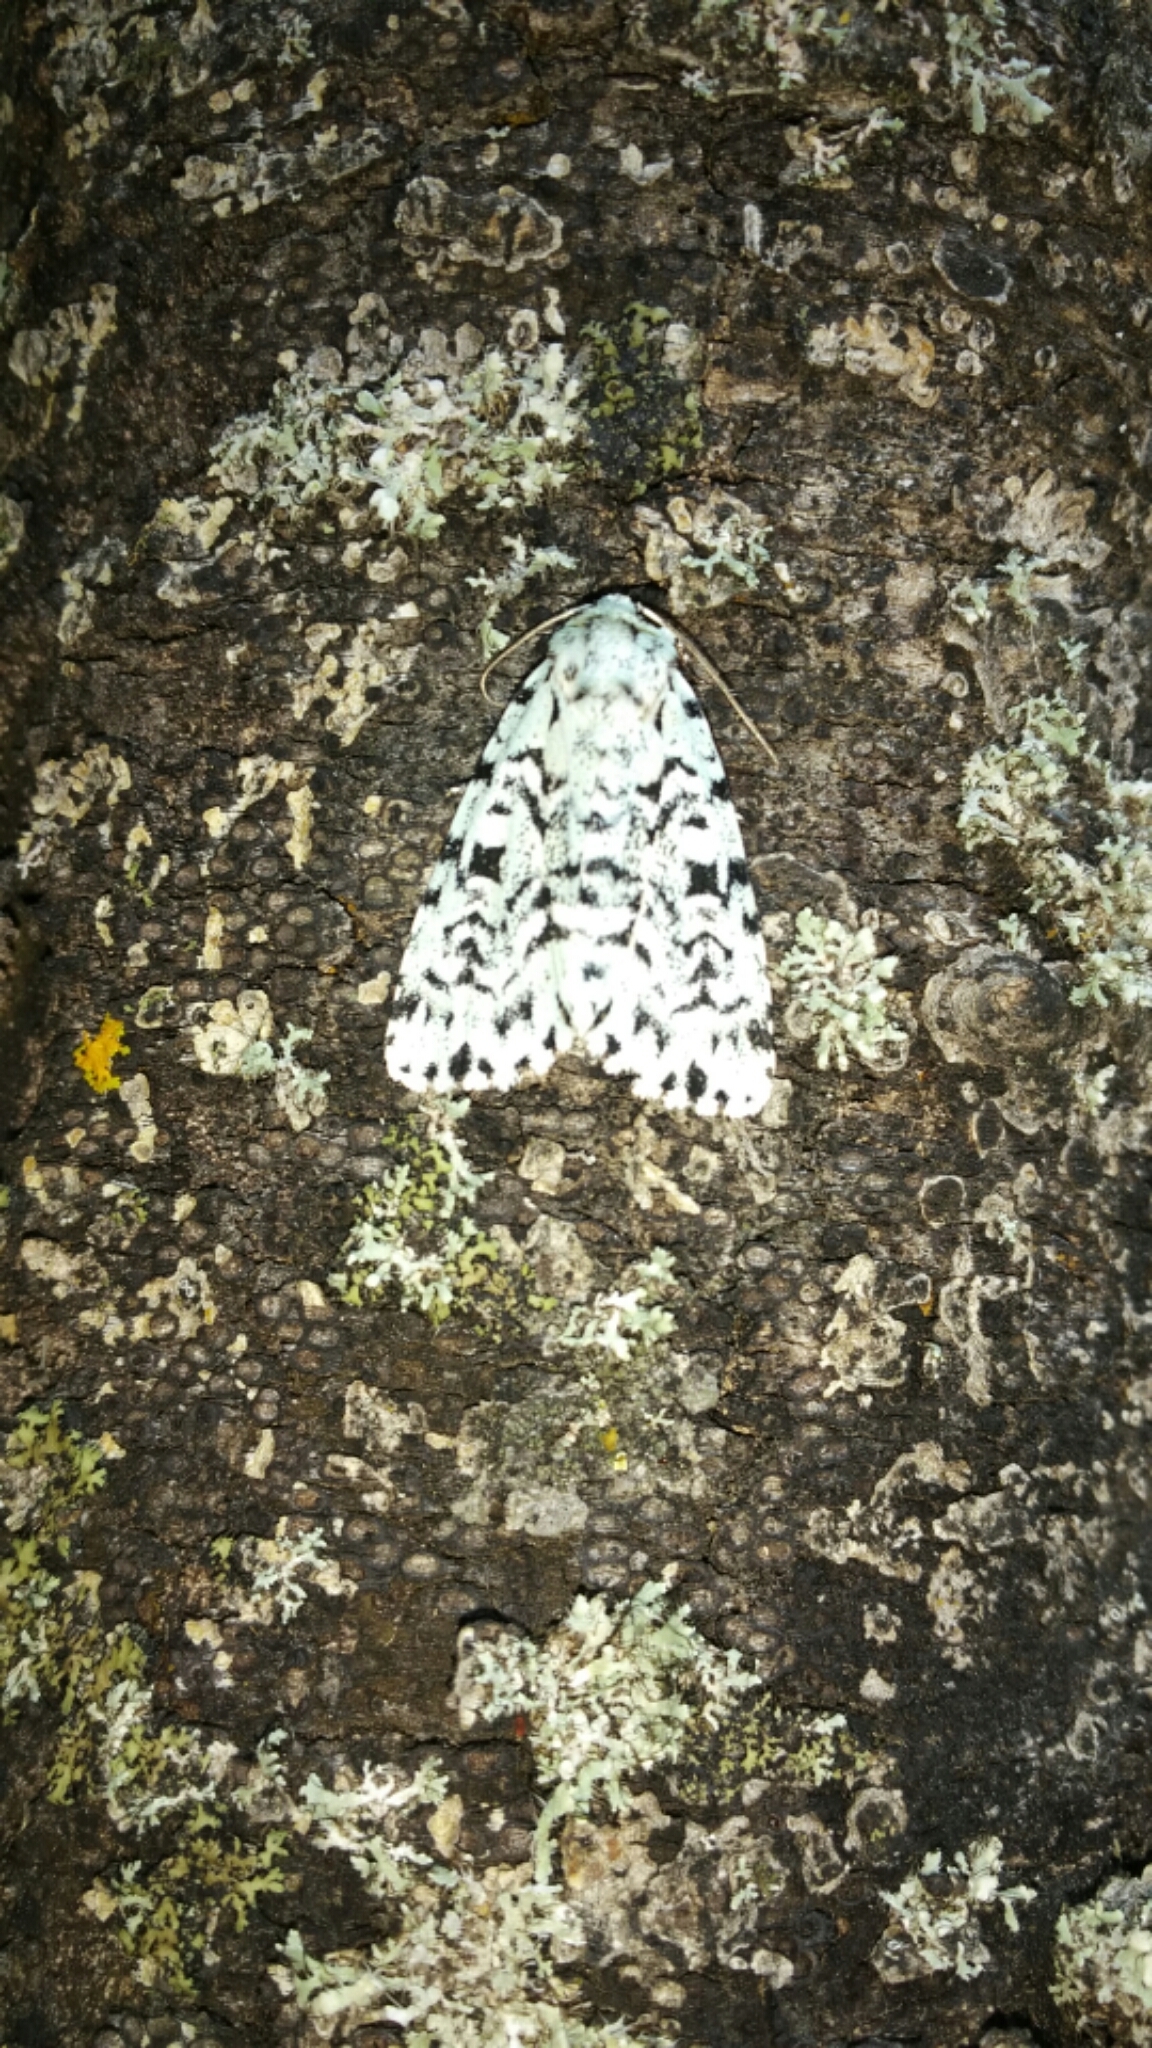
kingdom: Animalia
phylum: Arthropoda
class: Insecta
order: Lepidoptera
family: Noctuidae
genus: Acronicta
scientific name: Acronicta fallax
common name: Green marvel
